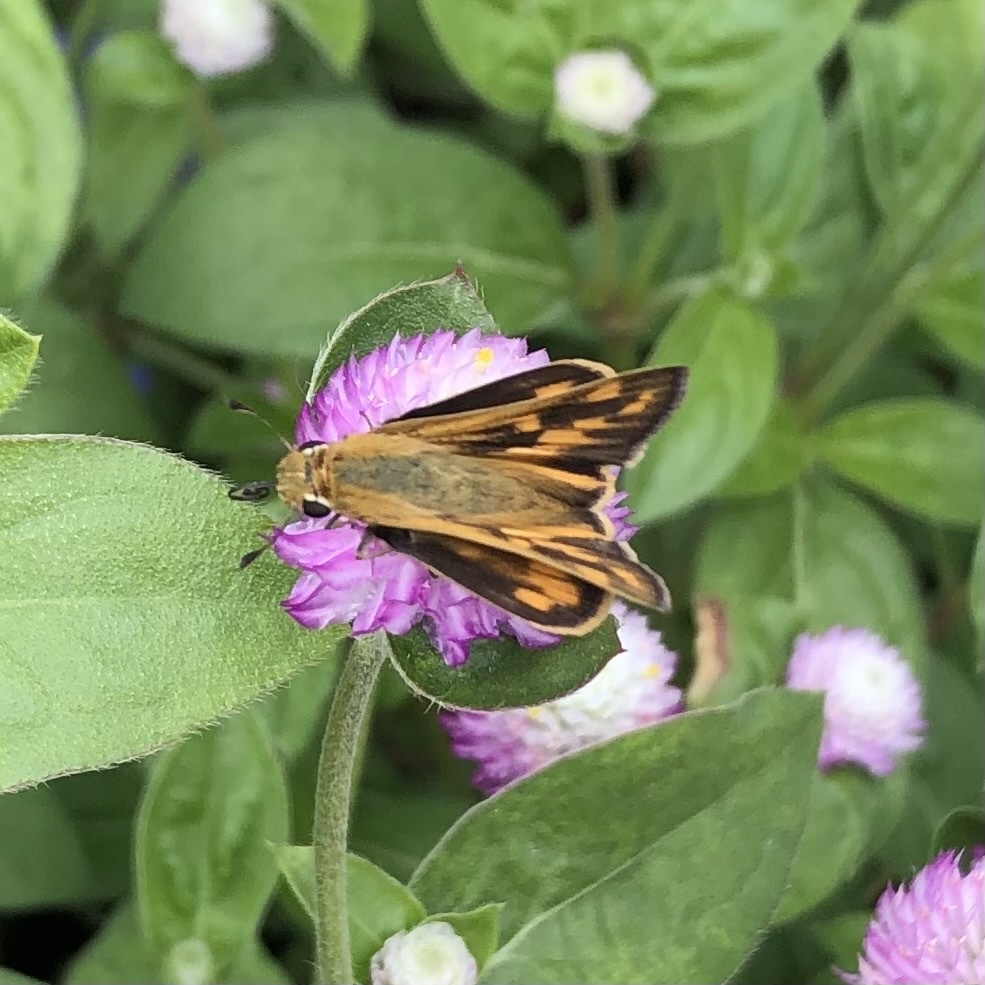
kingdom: Animalia
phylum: Arthropoda
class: Insecta
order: Lepidoptera
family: Hesperiidae
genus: Hylephila
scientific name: Hylephila phyleus
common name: Fiery skipper
